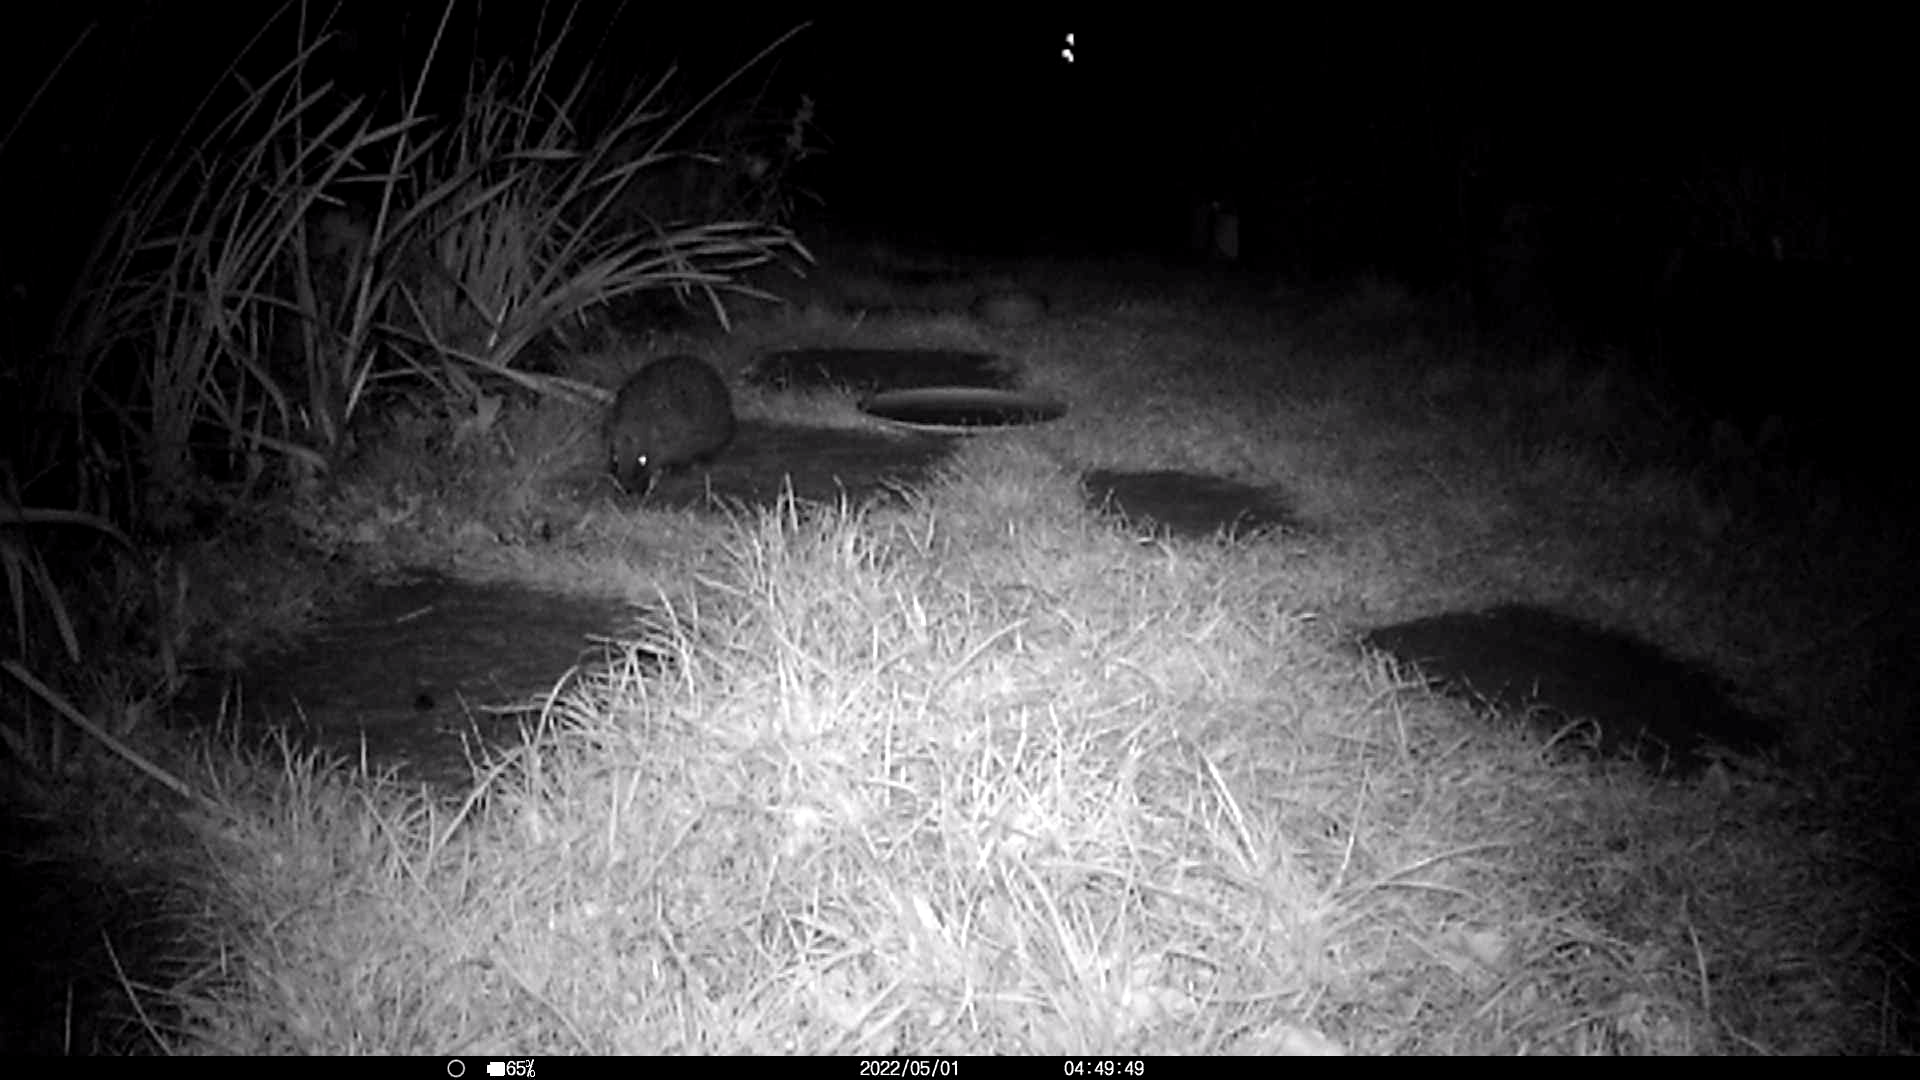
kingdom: Animalia
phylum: Chordata
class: Mammalia
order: Erinaceomorpha
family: Erinaceidae
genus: Erinaceus
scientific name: Erinaceus europaeus
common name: West european hedgehog
